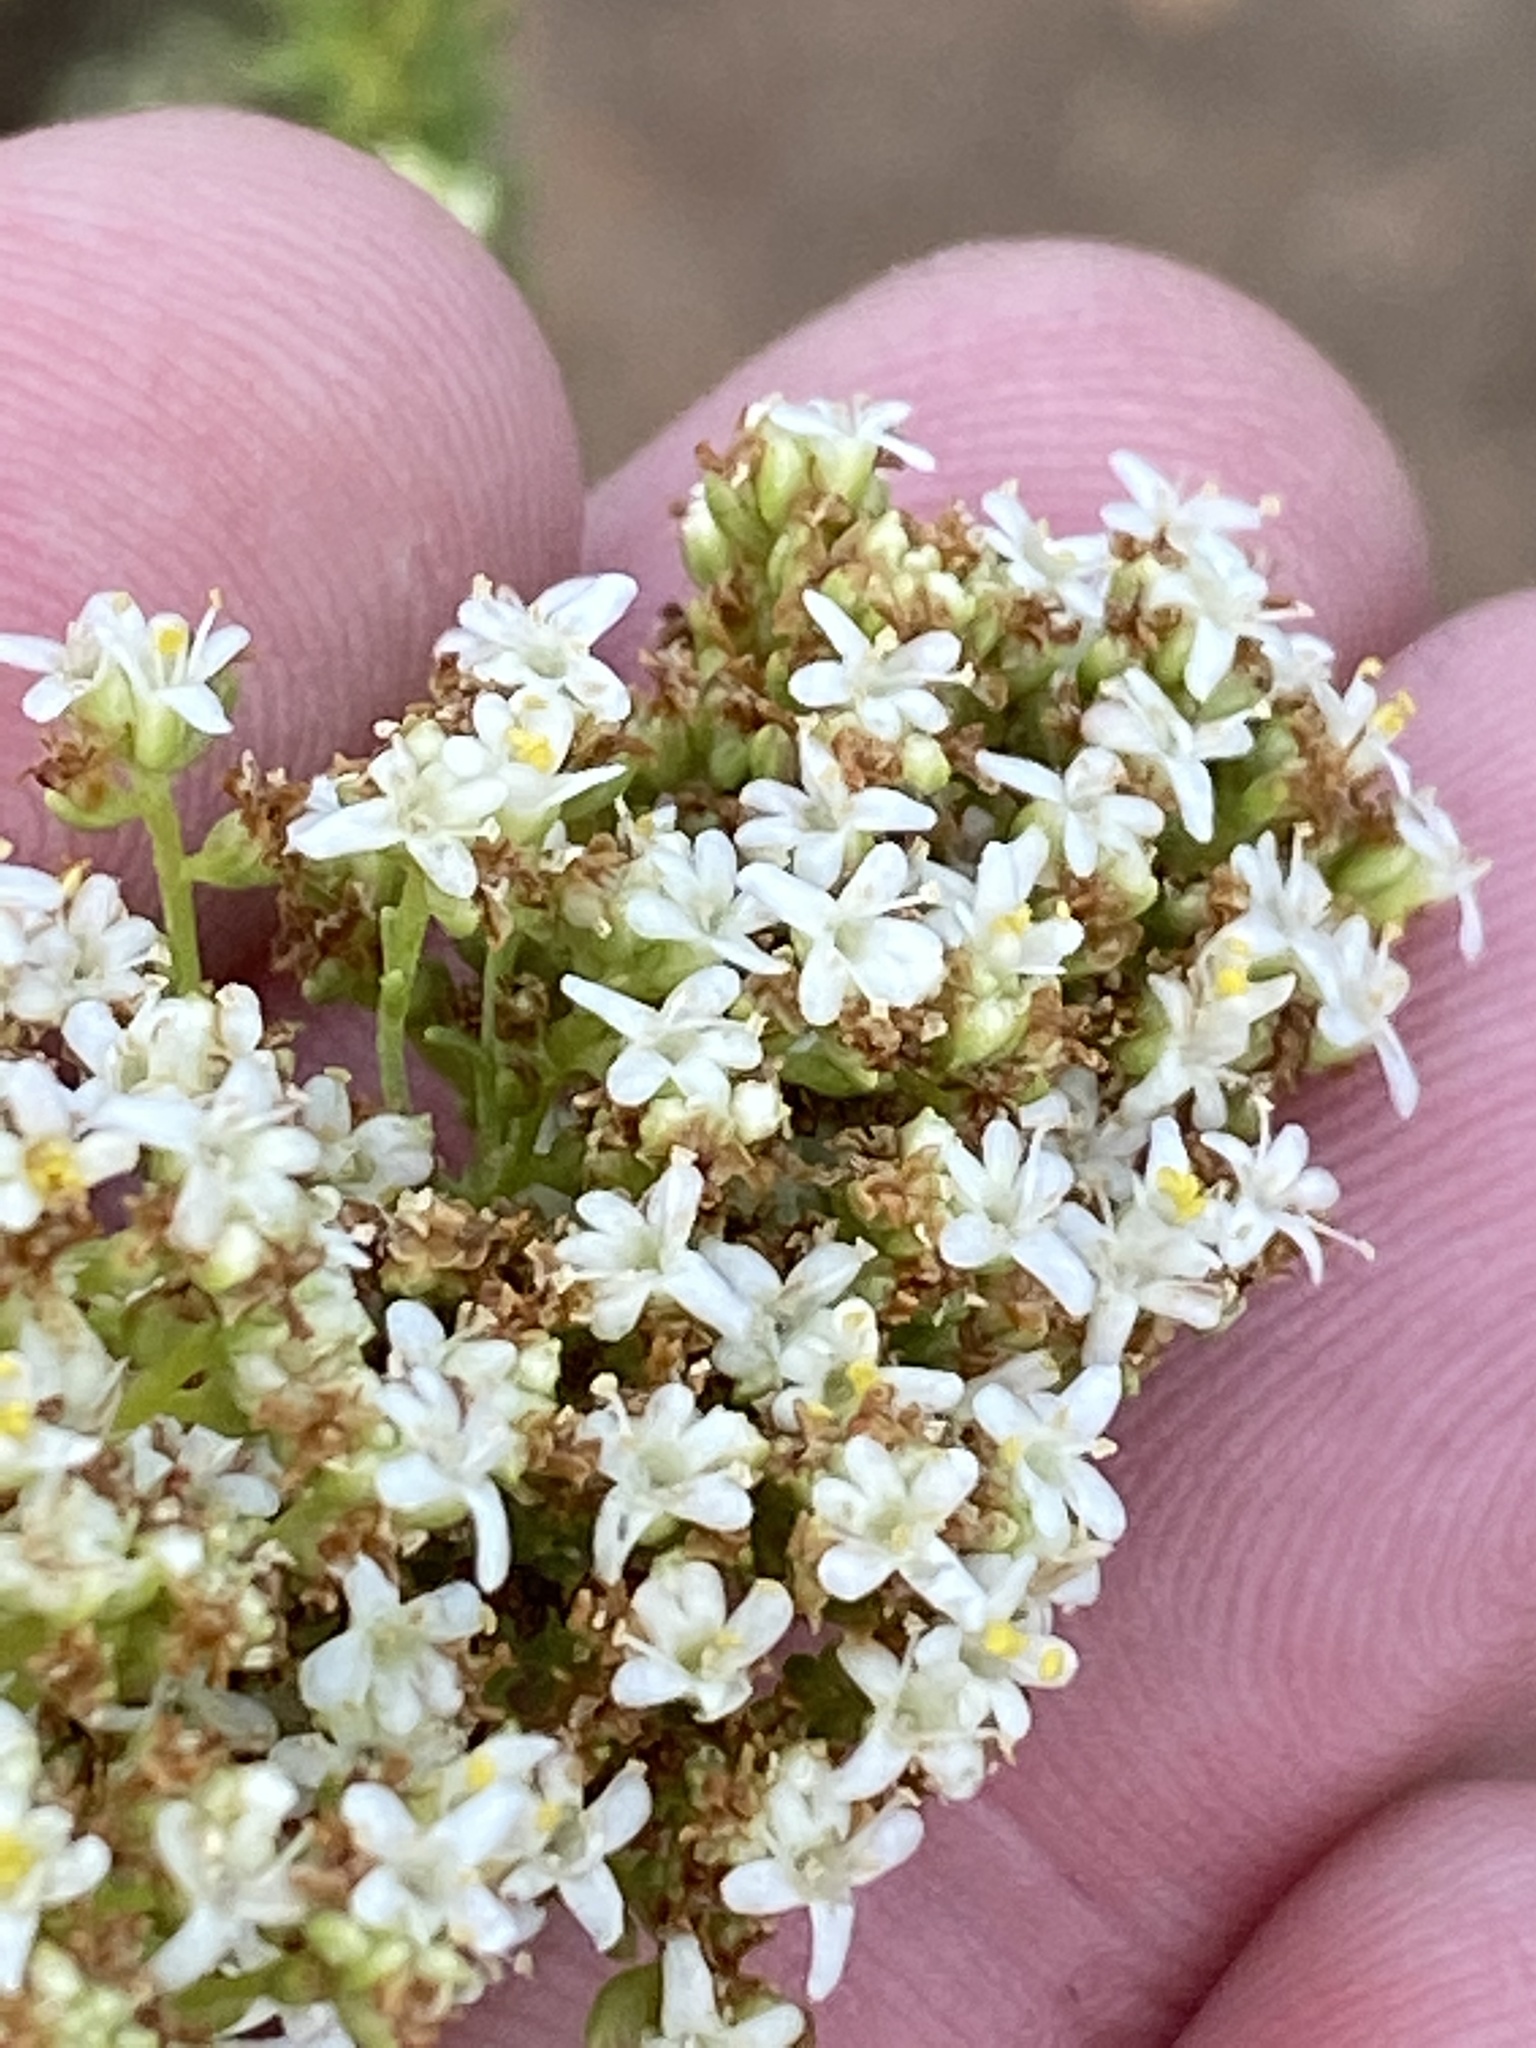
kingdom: Plantae
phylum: Tracheophyta
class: Magnoliopsida
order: Lamiales
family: Scrophulariaceae
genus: Selago
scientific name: Selago dolosa
